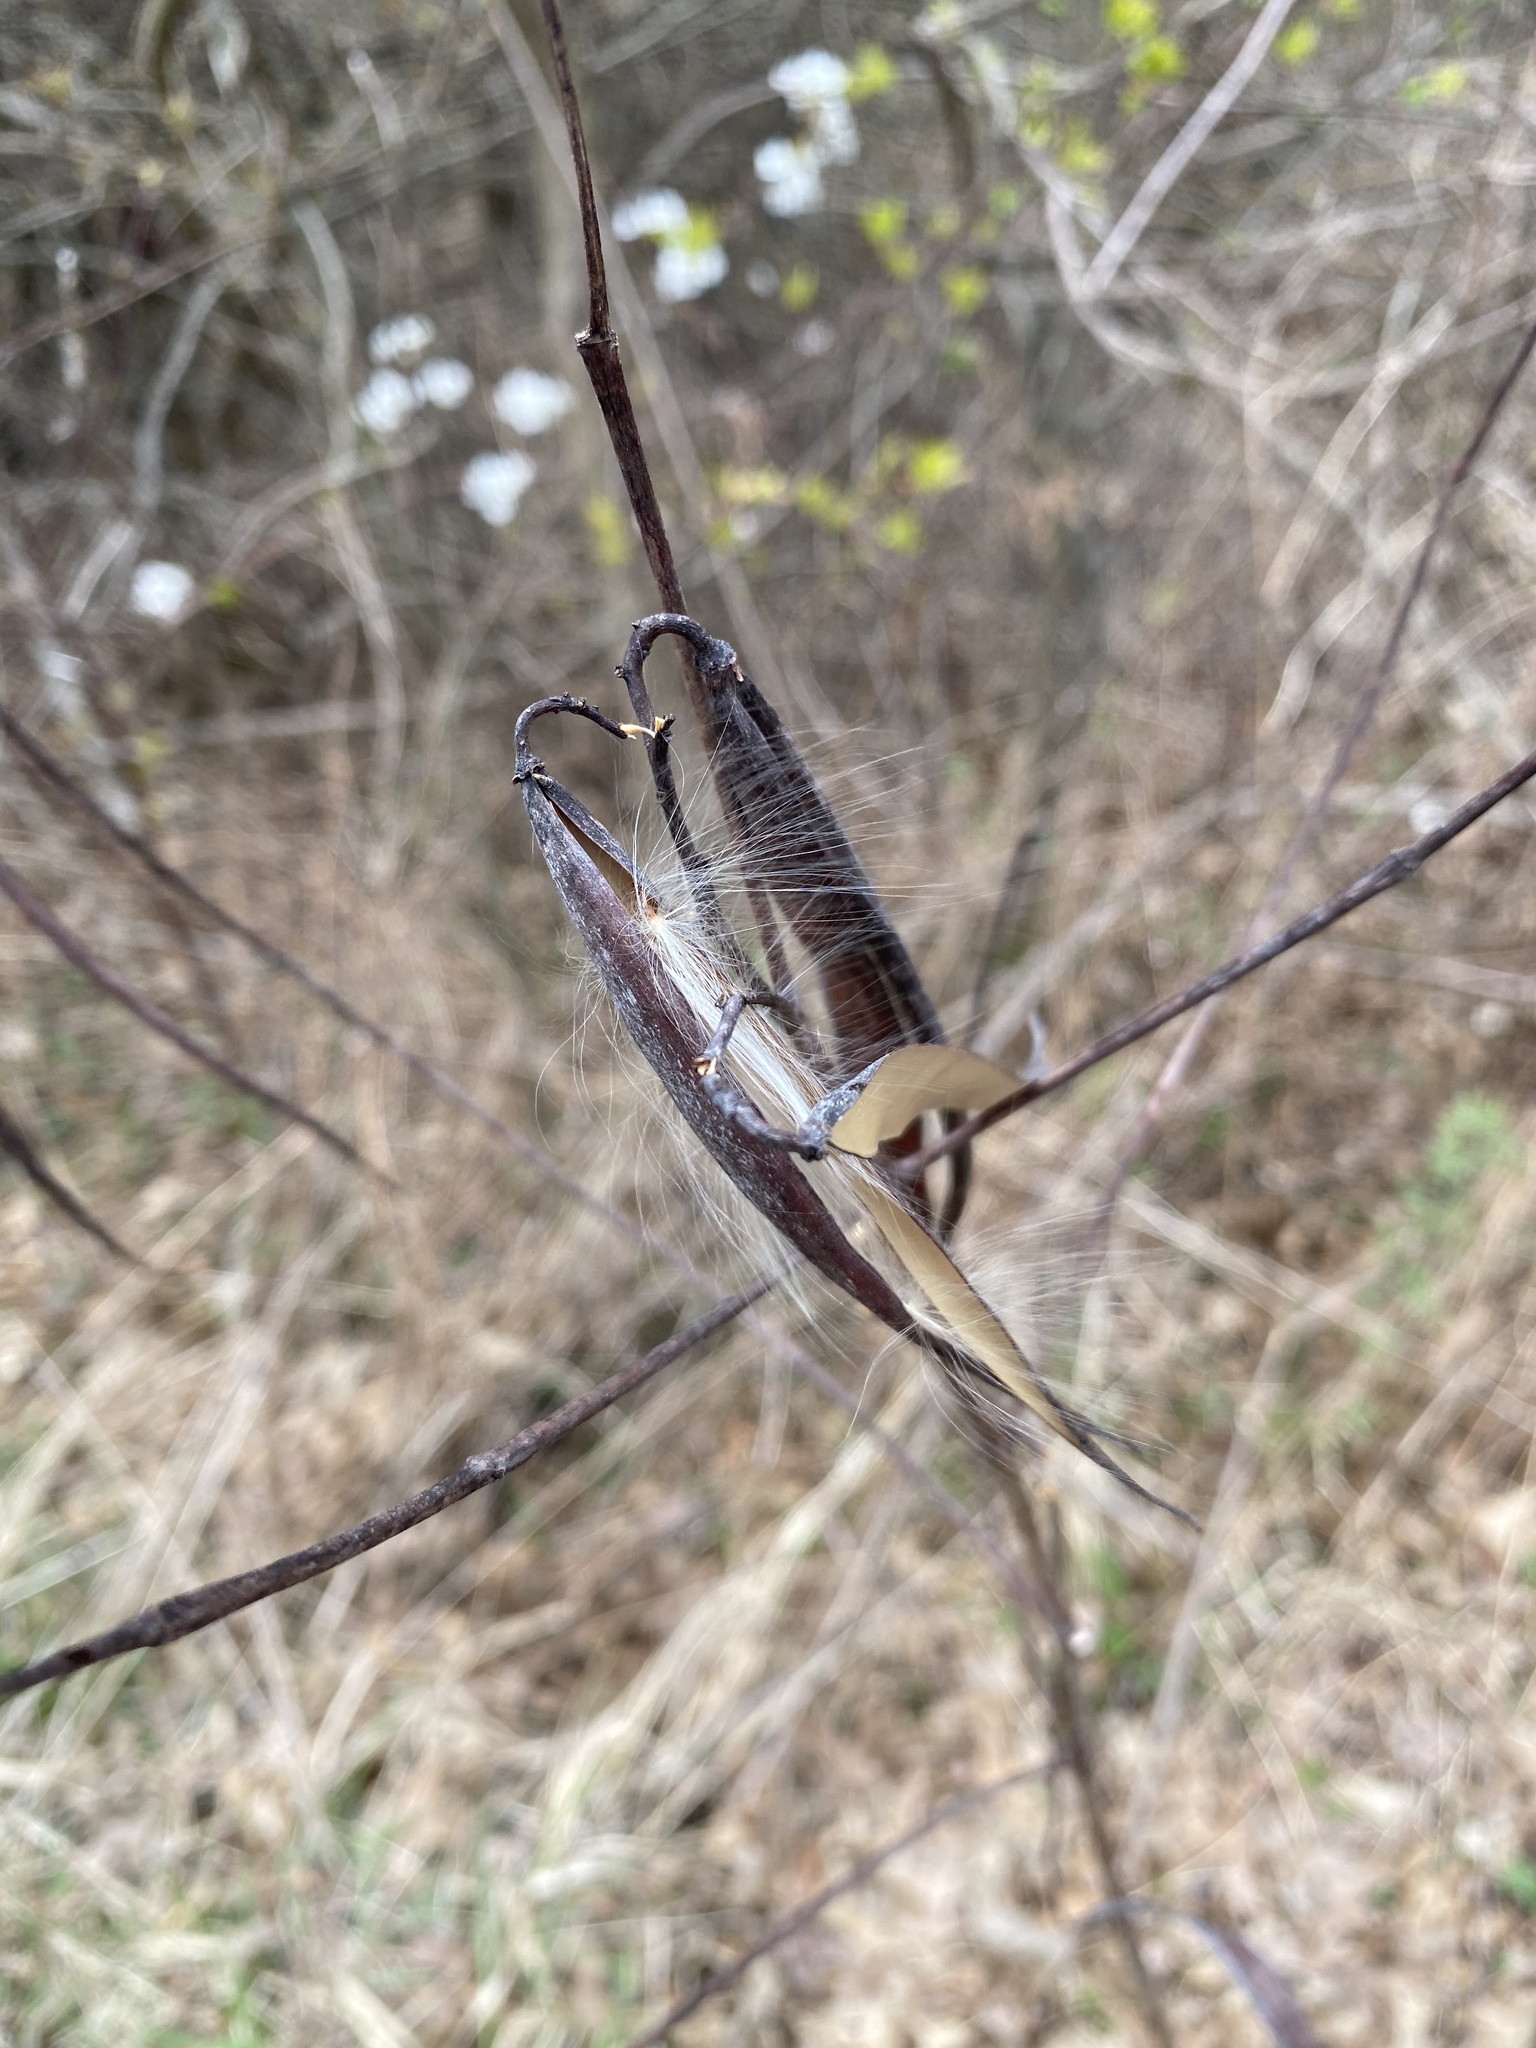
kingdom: Plantae
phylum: Tracheophyta
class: Magnoliopsida
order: Gentianales
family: Apocynaceae
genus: Apocynum
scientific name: Apocynum cannabinum
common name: Hemp dogbane
